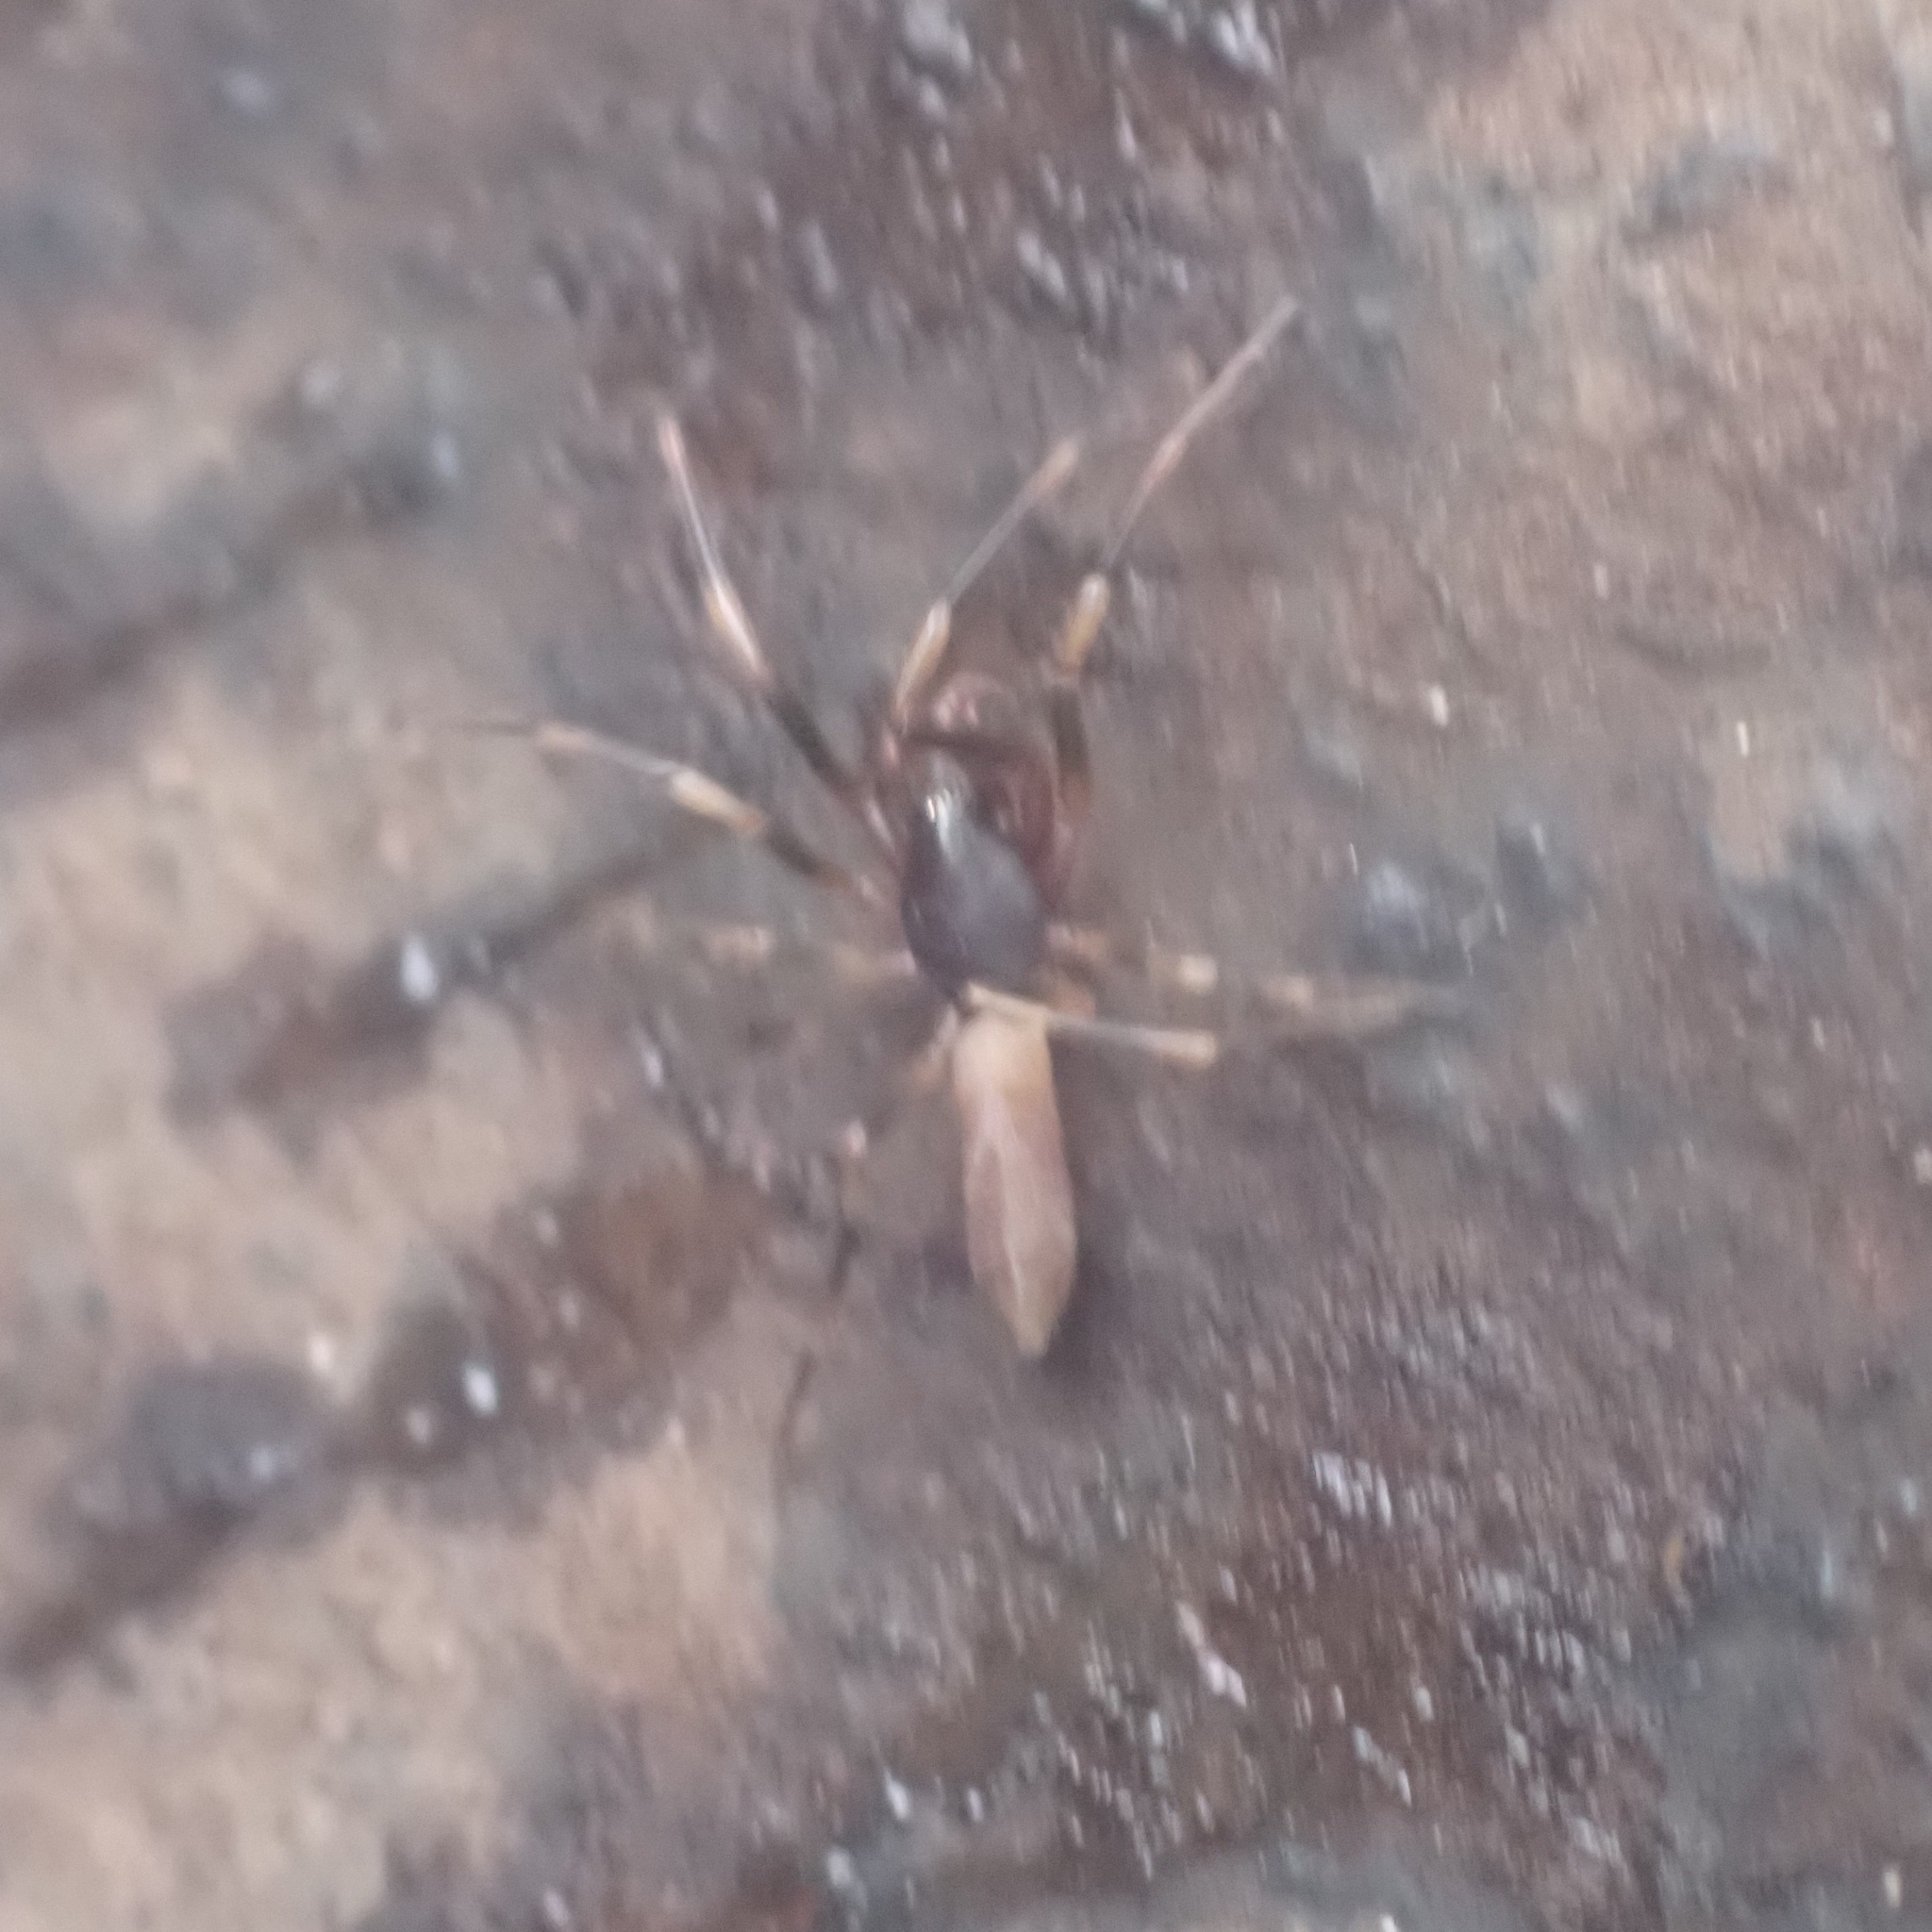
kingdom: Animalia
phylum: Arthropoda
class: Arachnida
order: Araneae
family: Dysderidae
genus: Harpactea
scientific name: Harpactea hombergi
